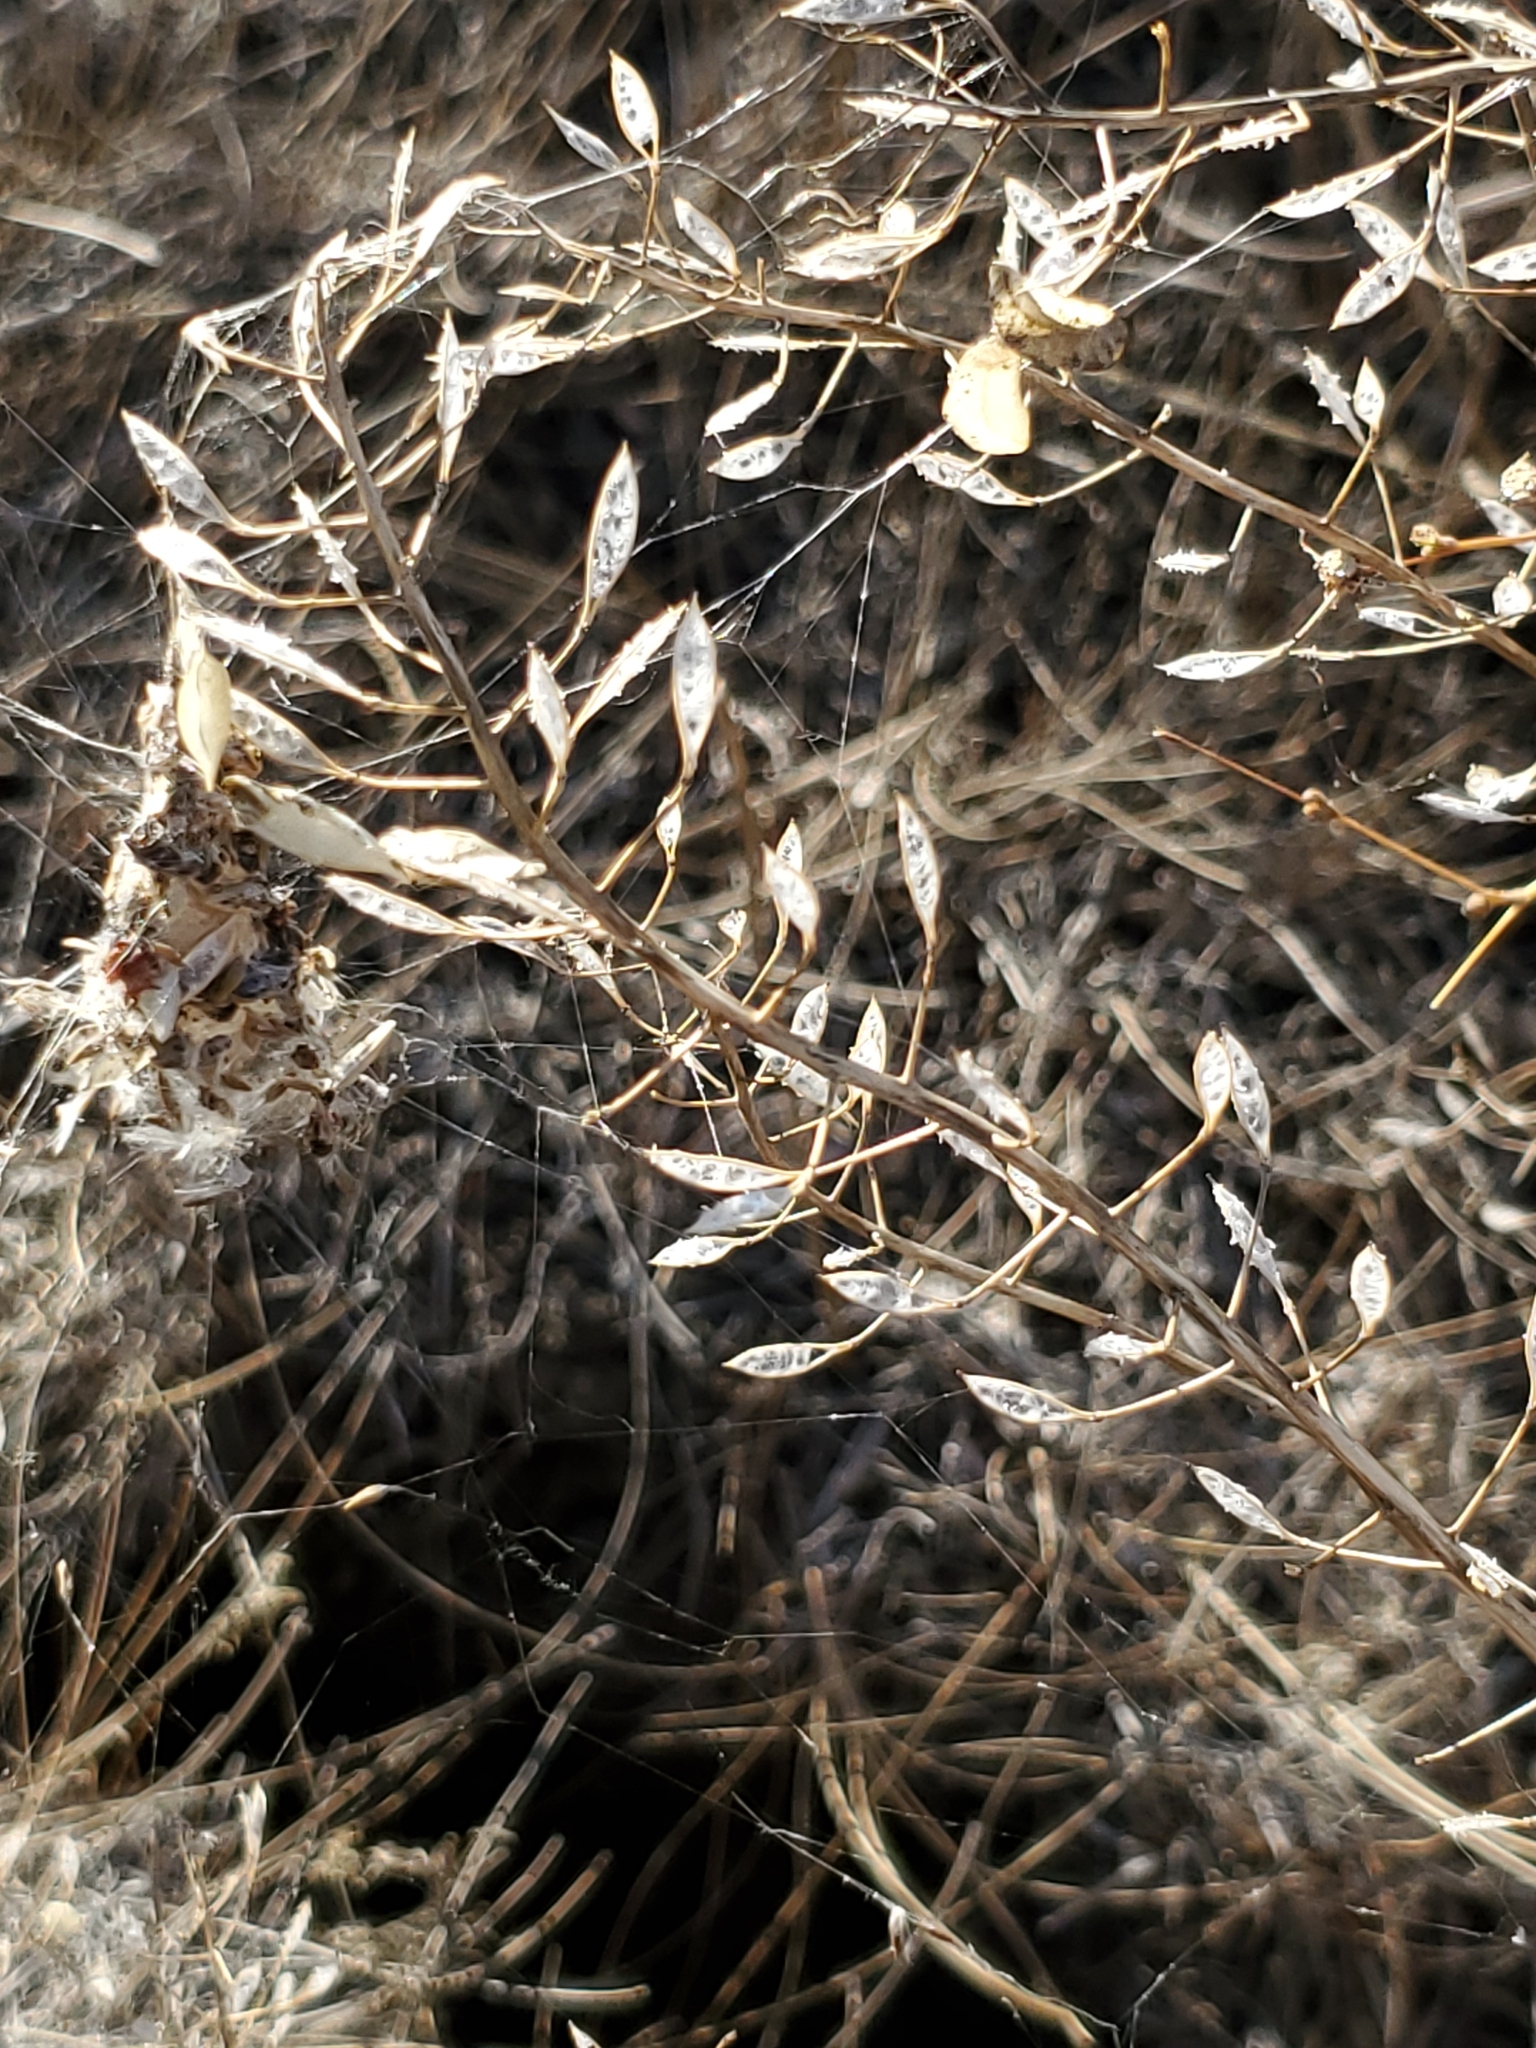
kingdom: Plantae
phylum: Tracheophyta
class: Magnoliopsida
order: Brassicales
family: Brassicaceae
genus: Thlaspi
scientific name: Thlaspi arvense
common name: Field pennycress
